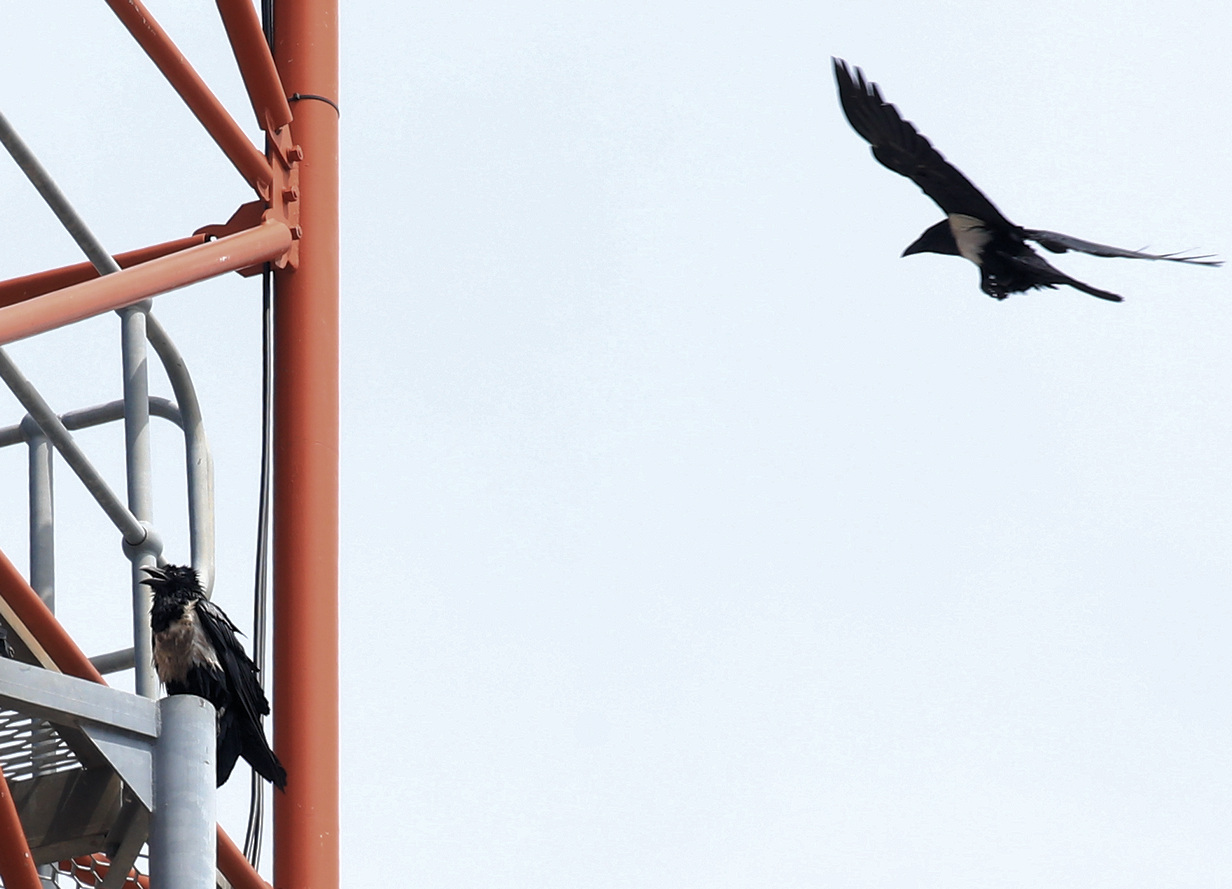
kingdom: Animalia
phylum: Chordata
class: Aves
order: Passeriformes
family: Corvidae
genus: Corvus
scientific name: Corvus albus
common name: Pied crow
